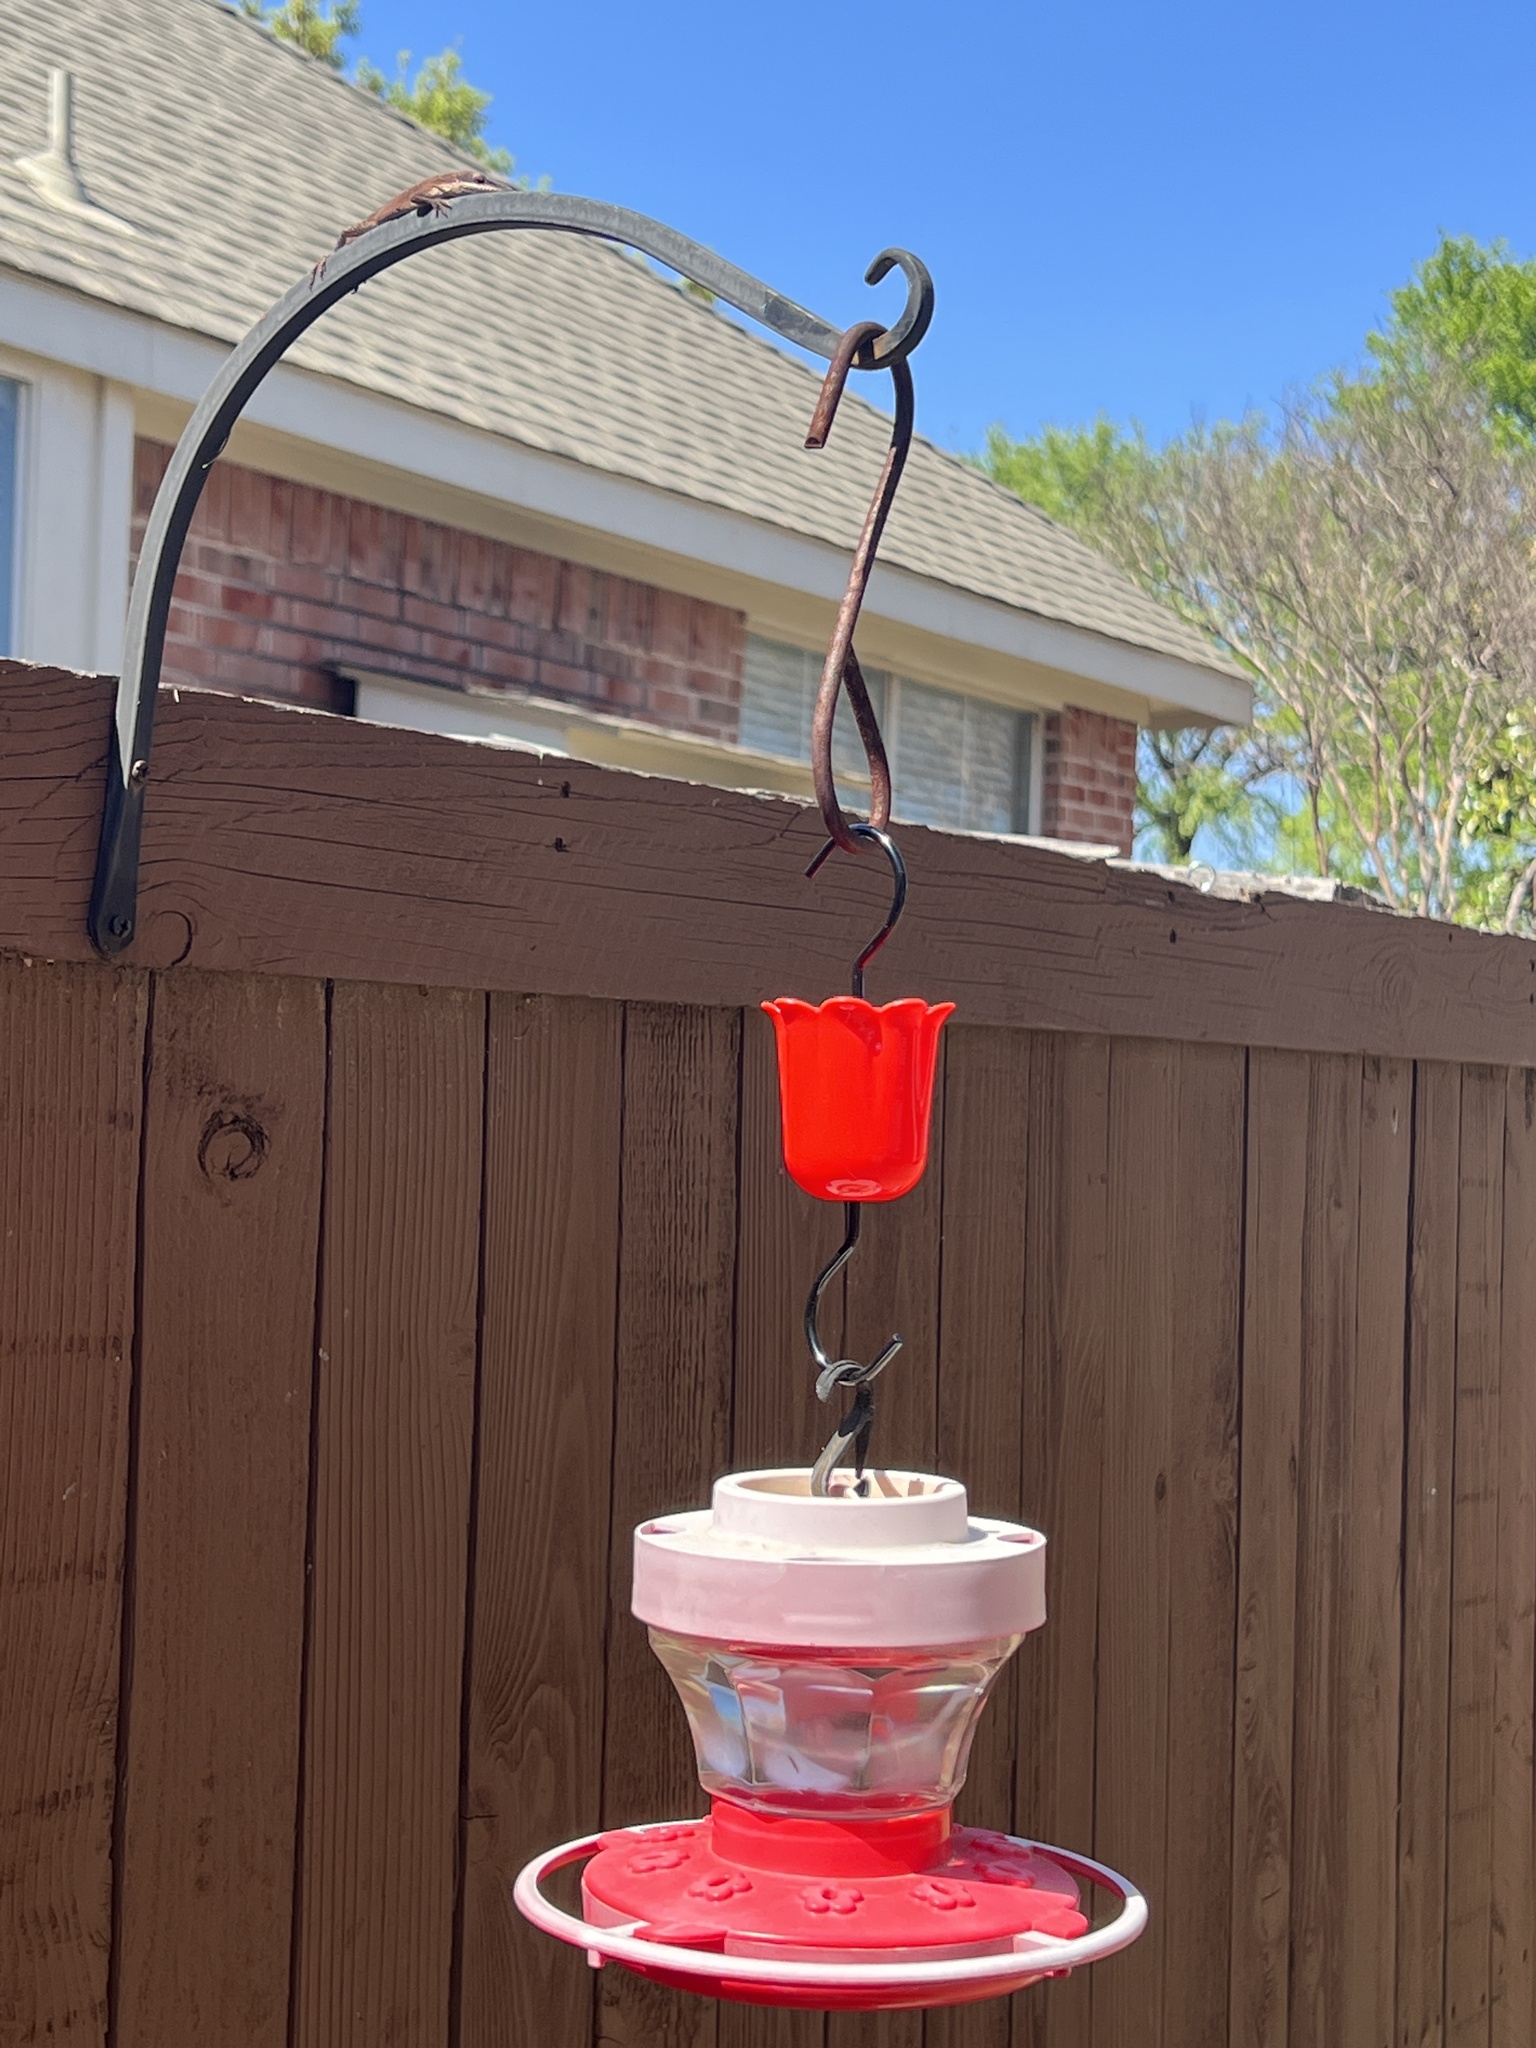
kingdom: Animalia
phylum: Chordata
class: Squamata
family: Dactyloidae
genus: Anolis
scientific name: Anolis carolinensis
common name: Green anole
